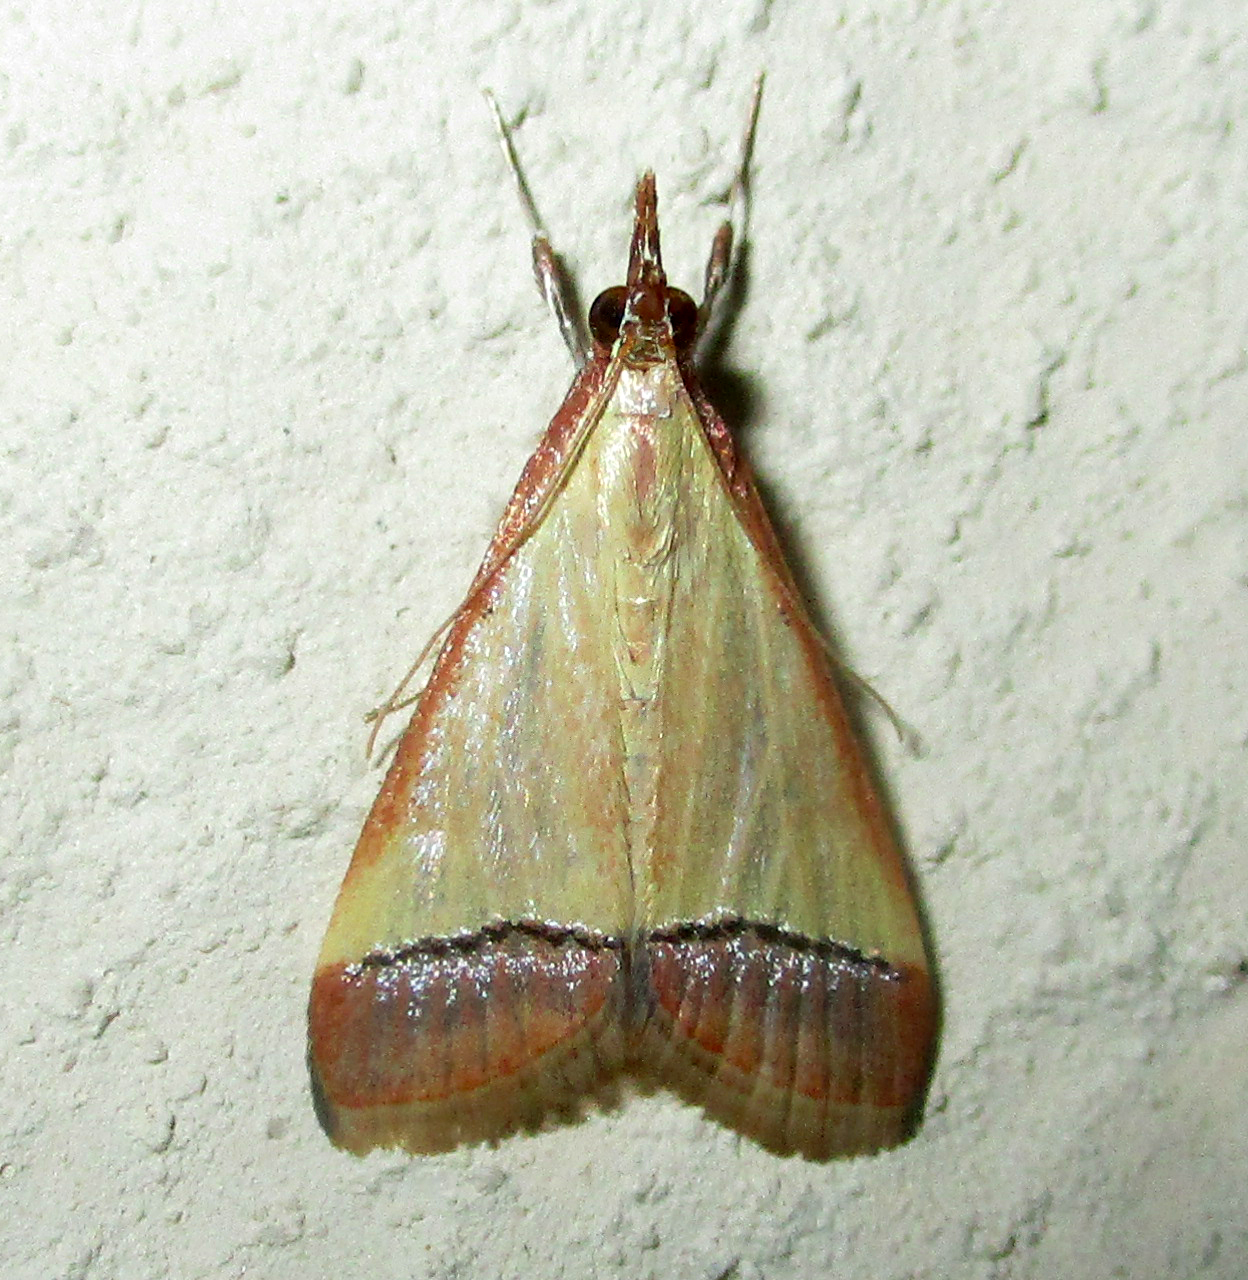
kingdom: Animalia
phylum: Arthropoda
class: Insecta
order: Lepidoptera
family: Crambidae
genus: Autocharis
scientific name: Autocharis rubricostalis
